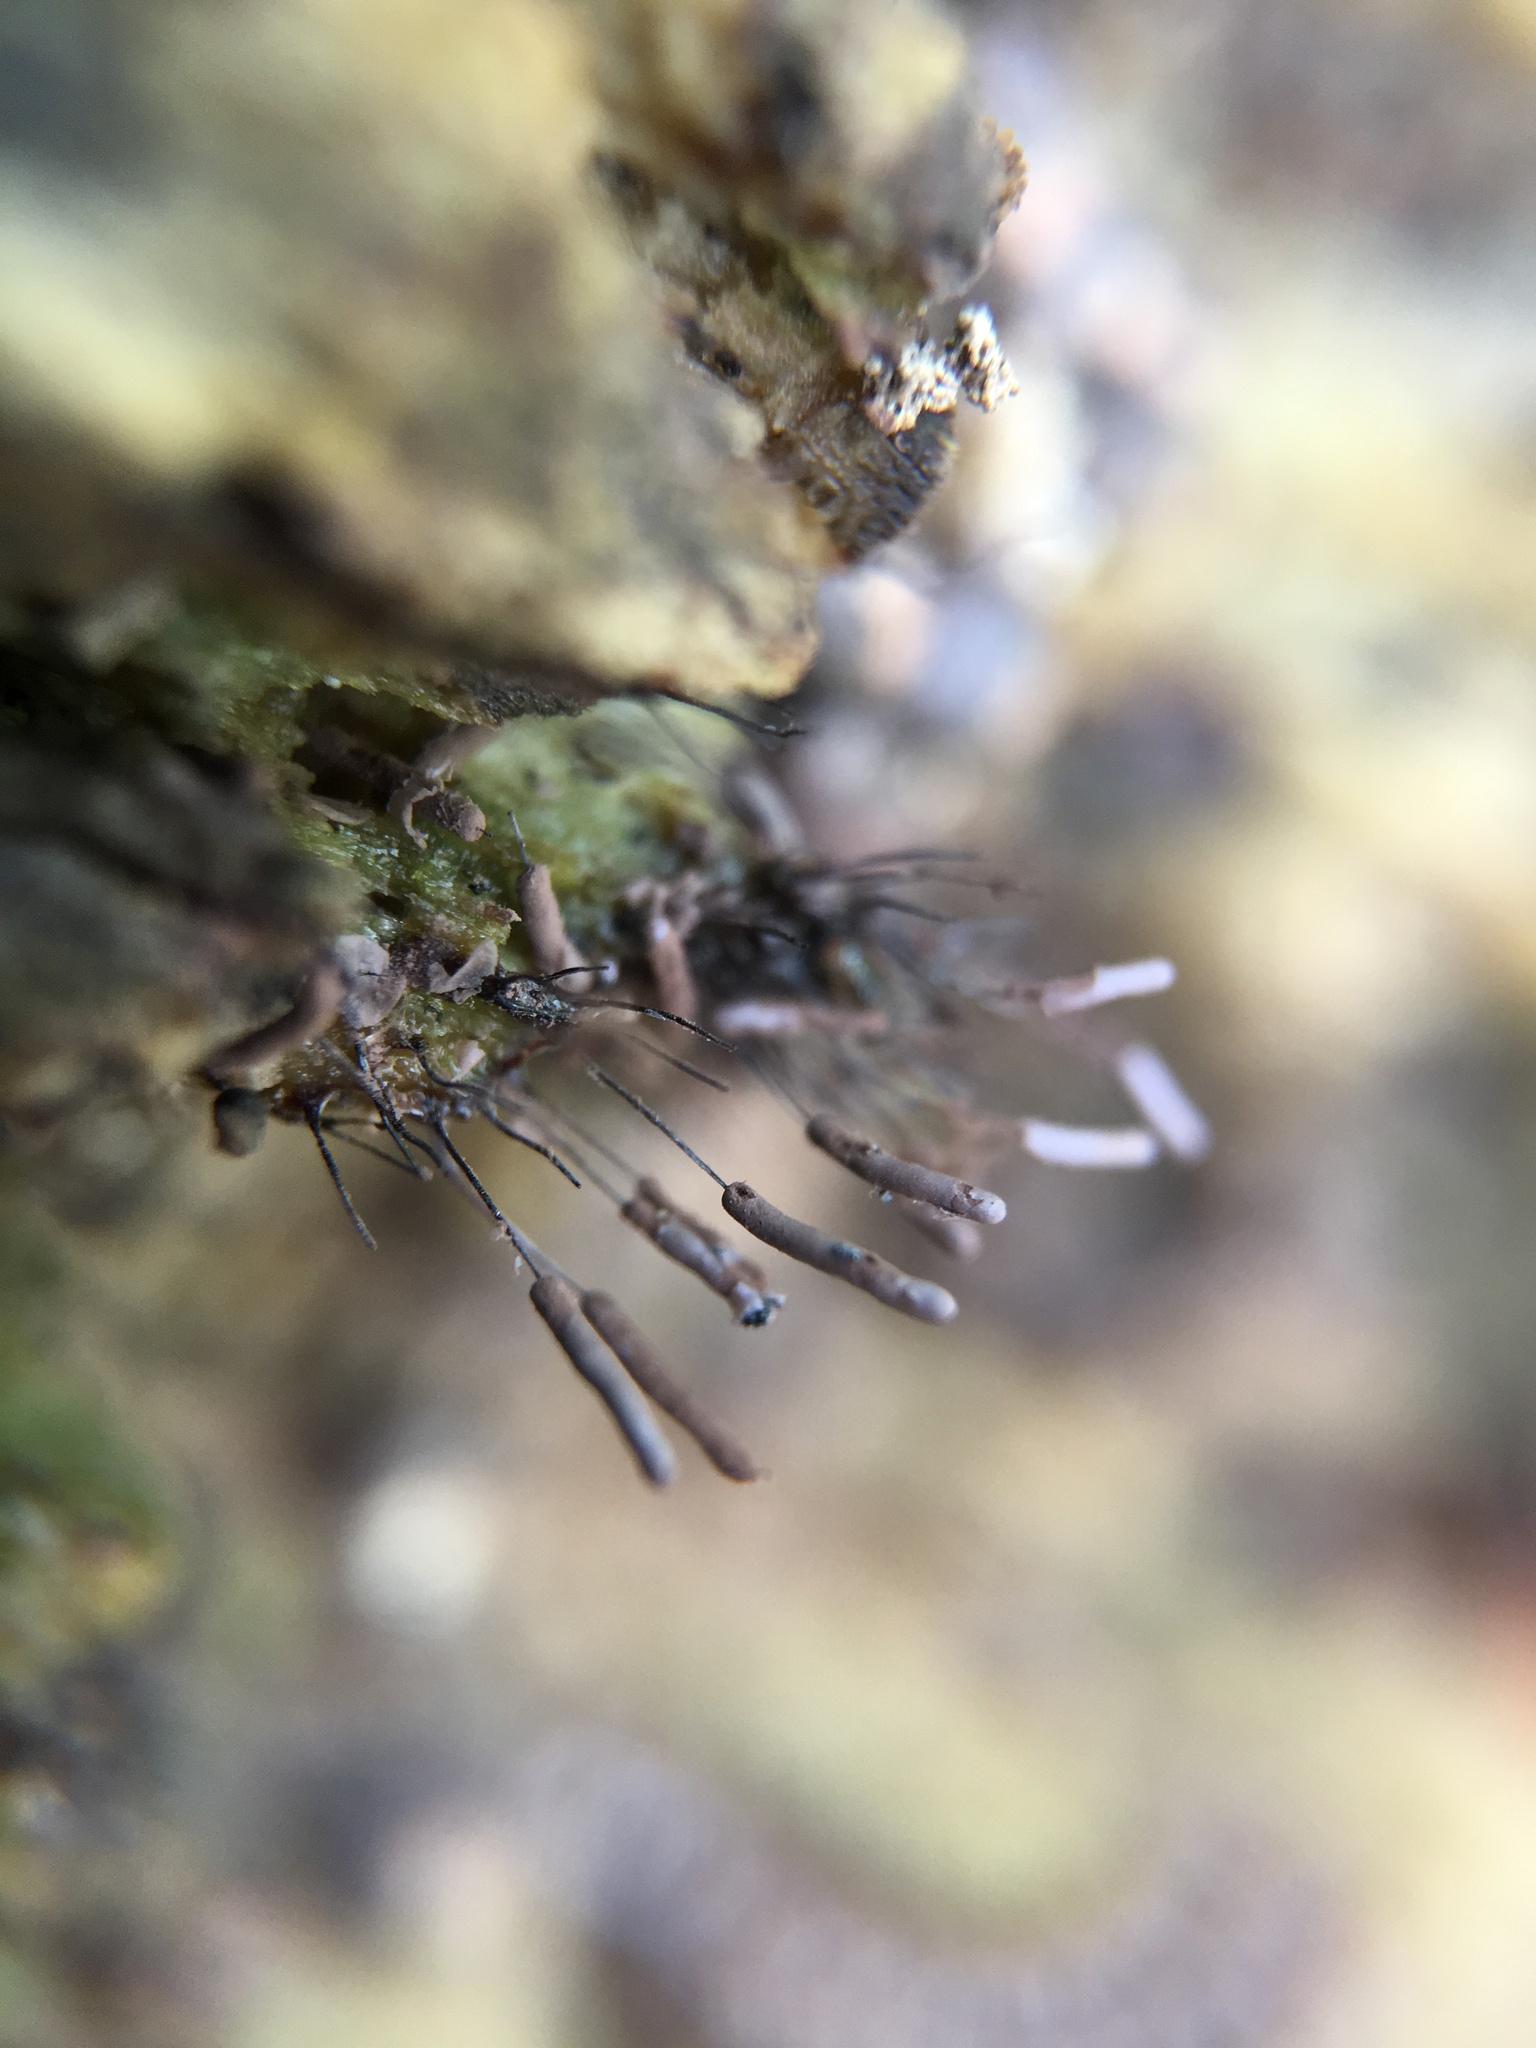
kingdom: Protozoa
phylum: Mycetozoa
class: Myxomycetes
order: Stemonitidales
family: Stemonitidaceae
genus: Stemonitopsis
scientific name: Stemonitopsis typhina
